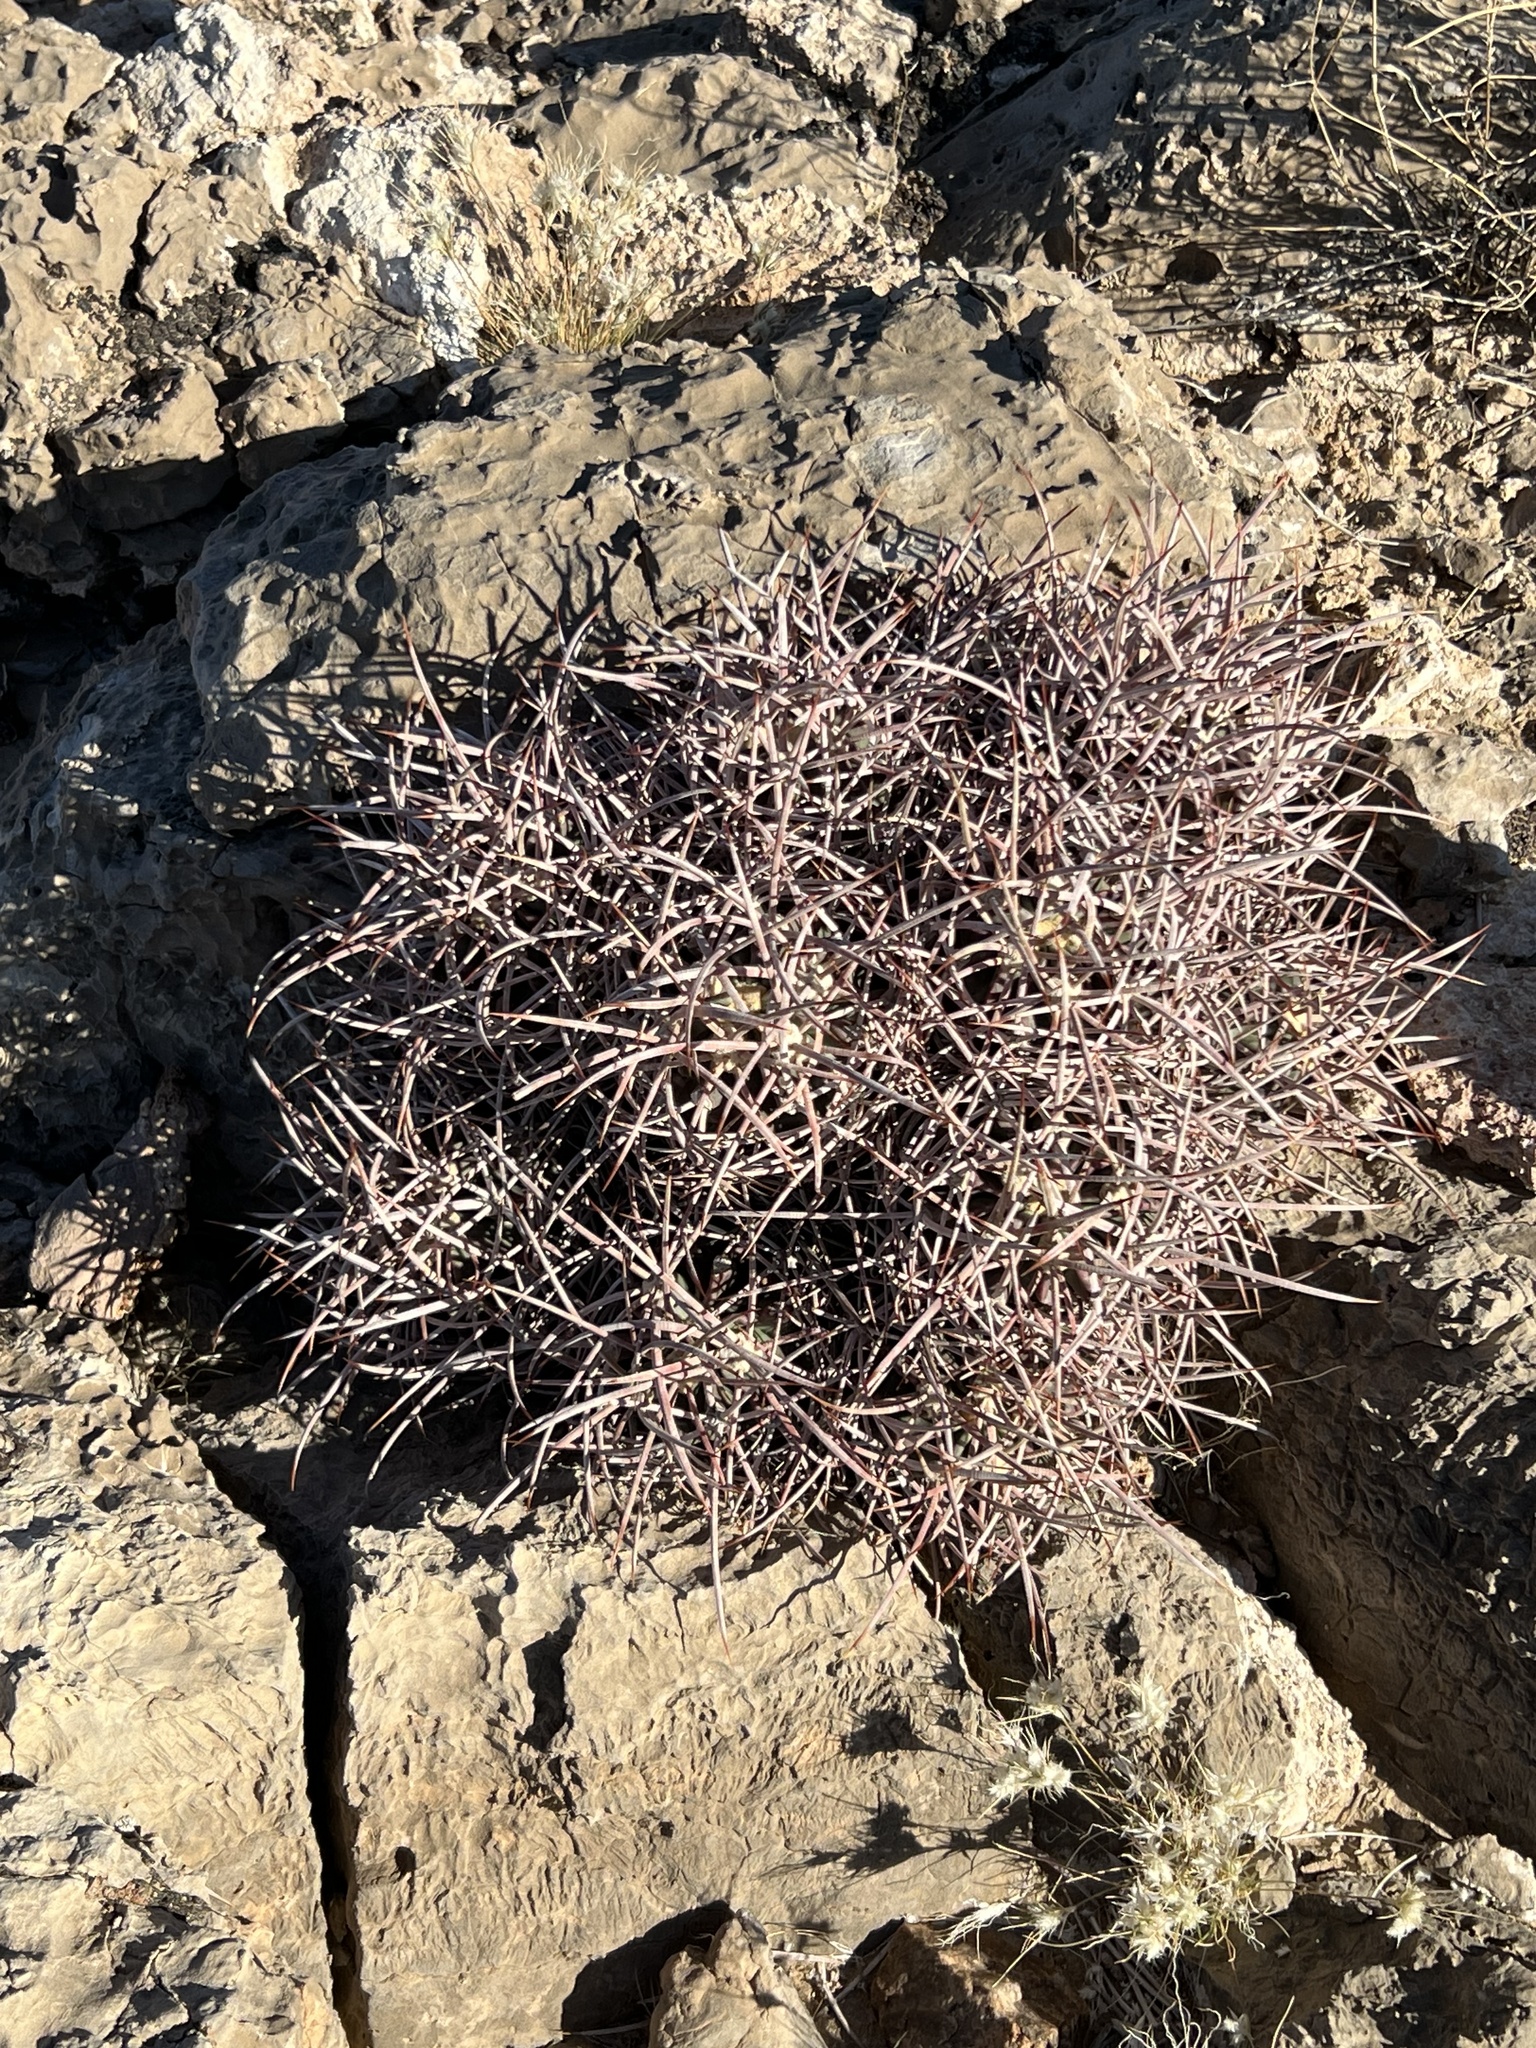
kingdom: Plantae
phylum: Tracheophyta
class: Magnoliopsida
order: Caryophyllales
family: Cactaceae
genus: Echinocactus
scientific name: Echinocactus polycephalus
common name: Cottontop cactus
